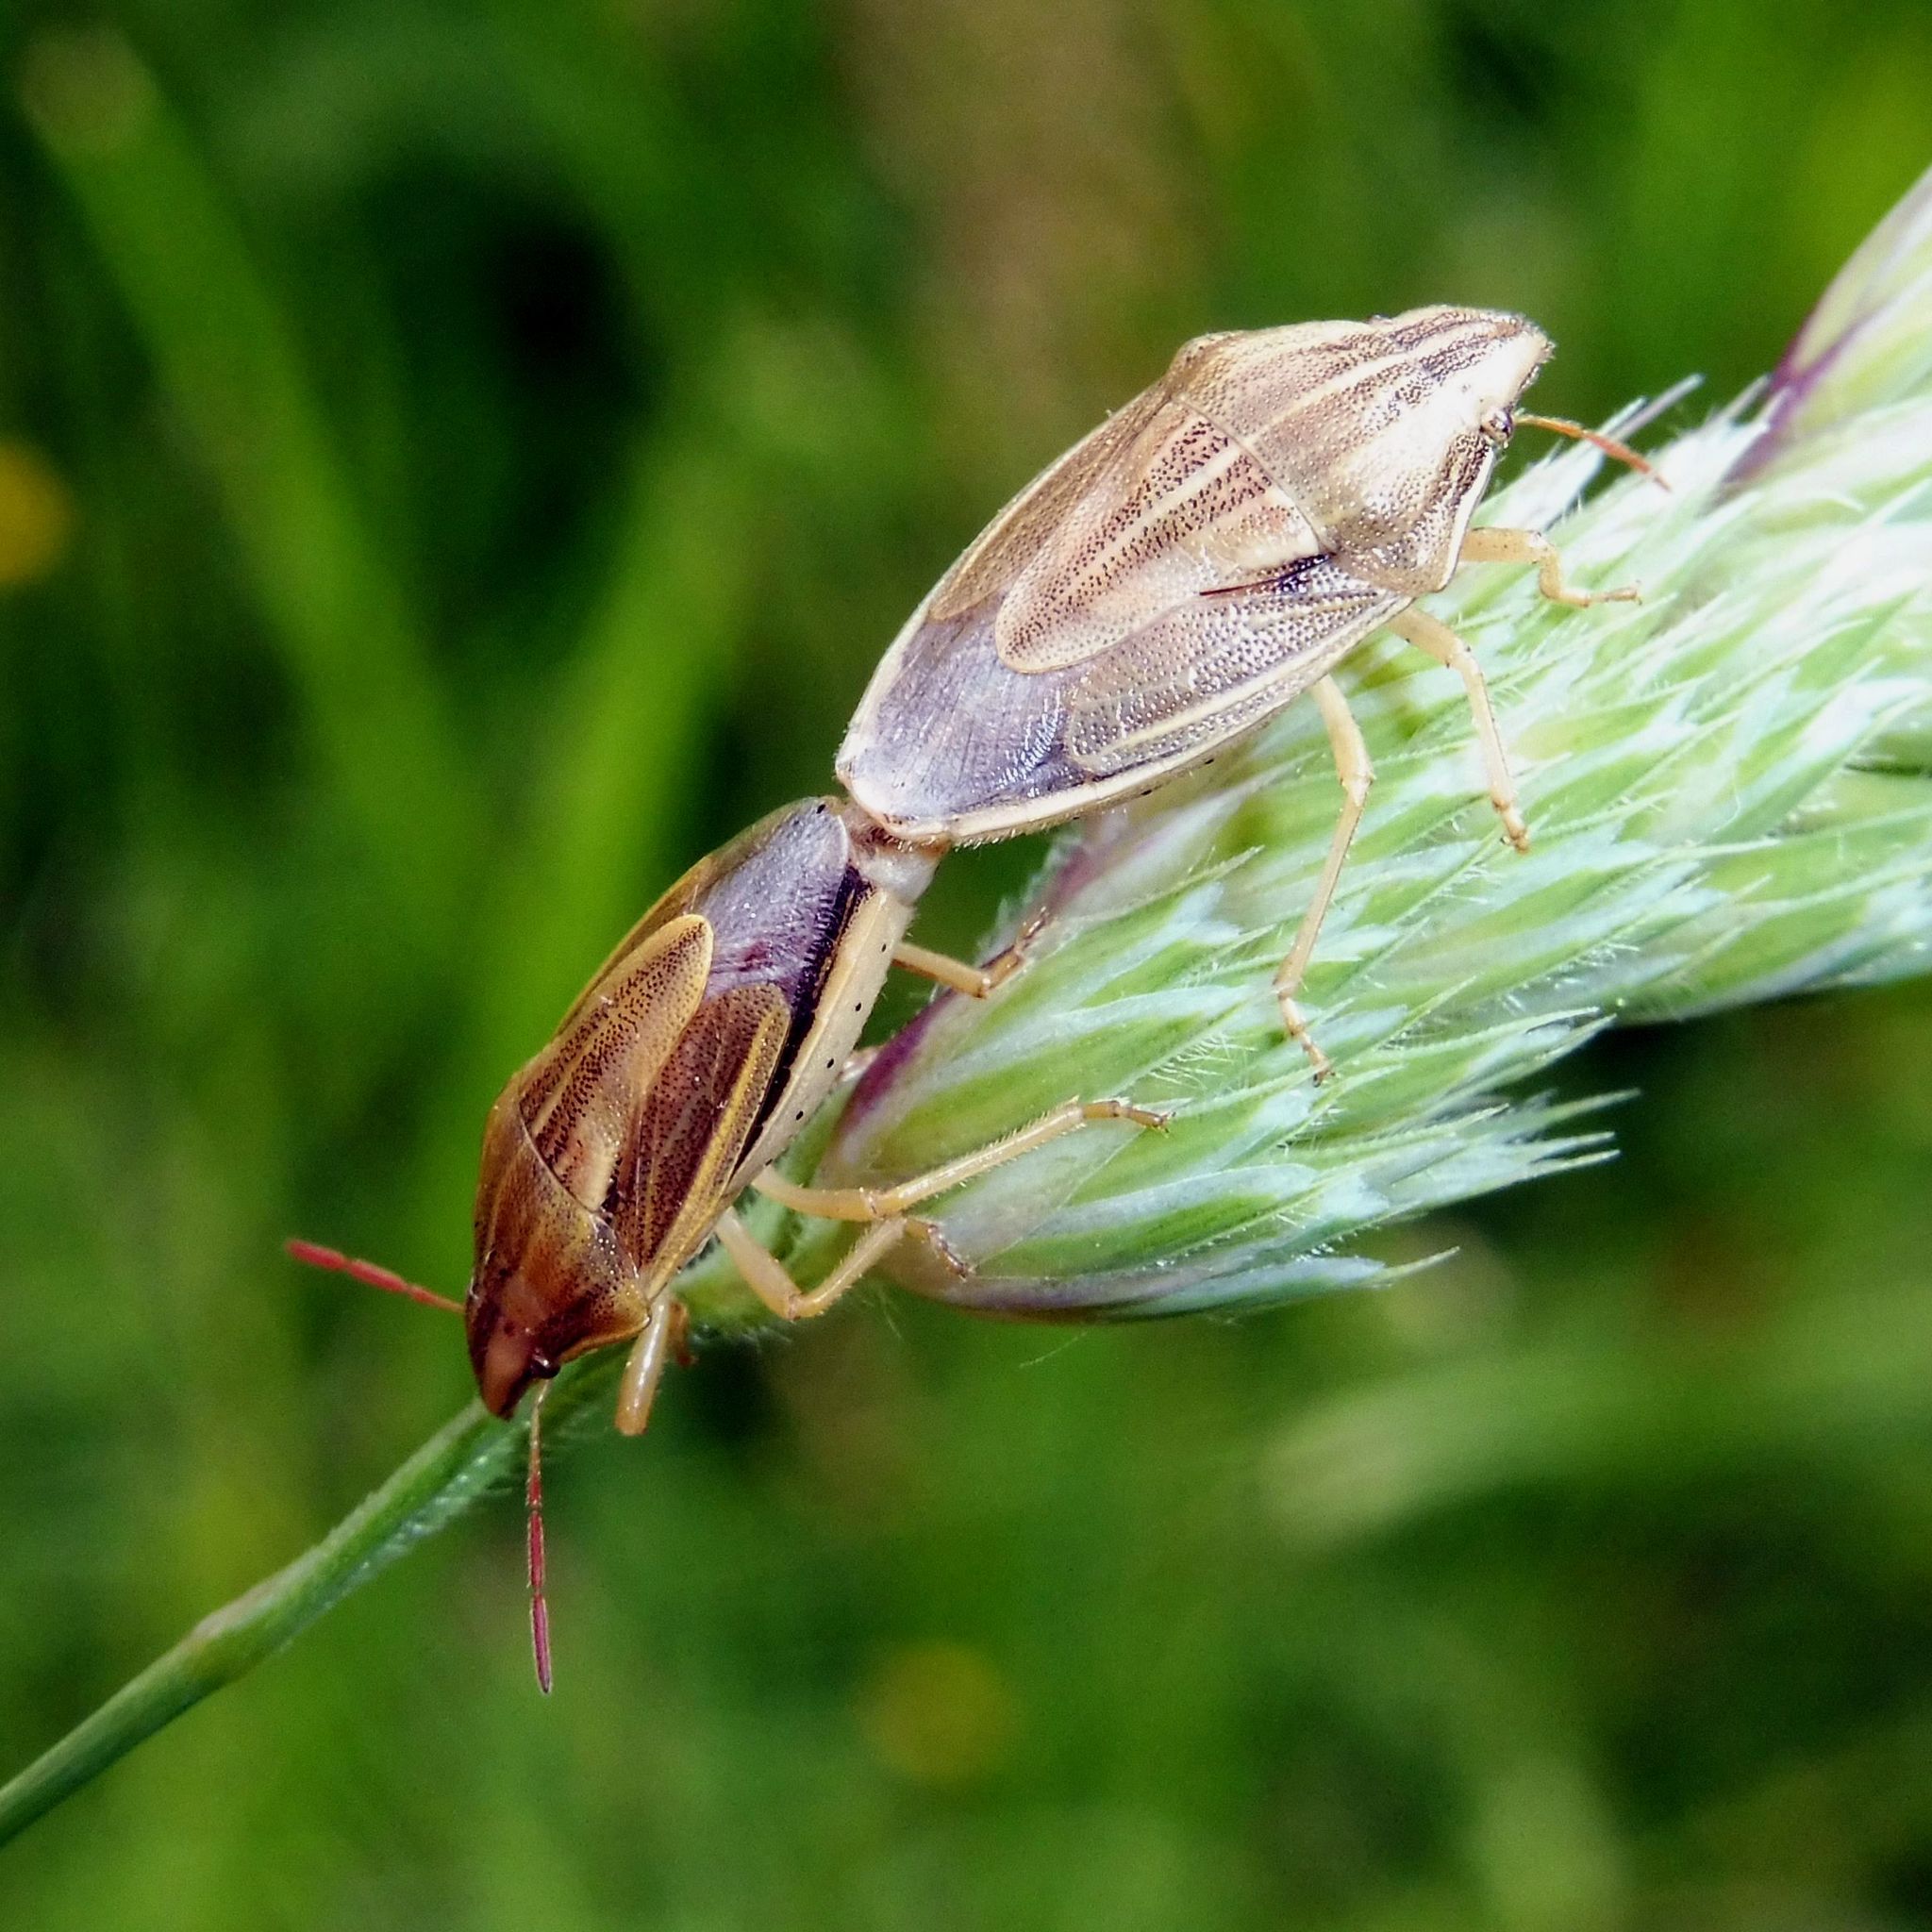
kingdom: Animalia
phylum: Arthropoda
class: Insecta
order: Hemiptera
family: Pentatomidae
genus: Aelia
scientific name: Aelia acuminata
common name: Bishop's mitre
